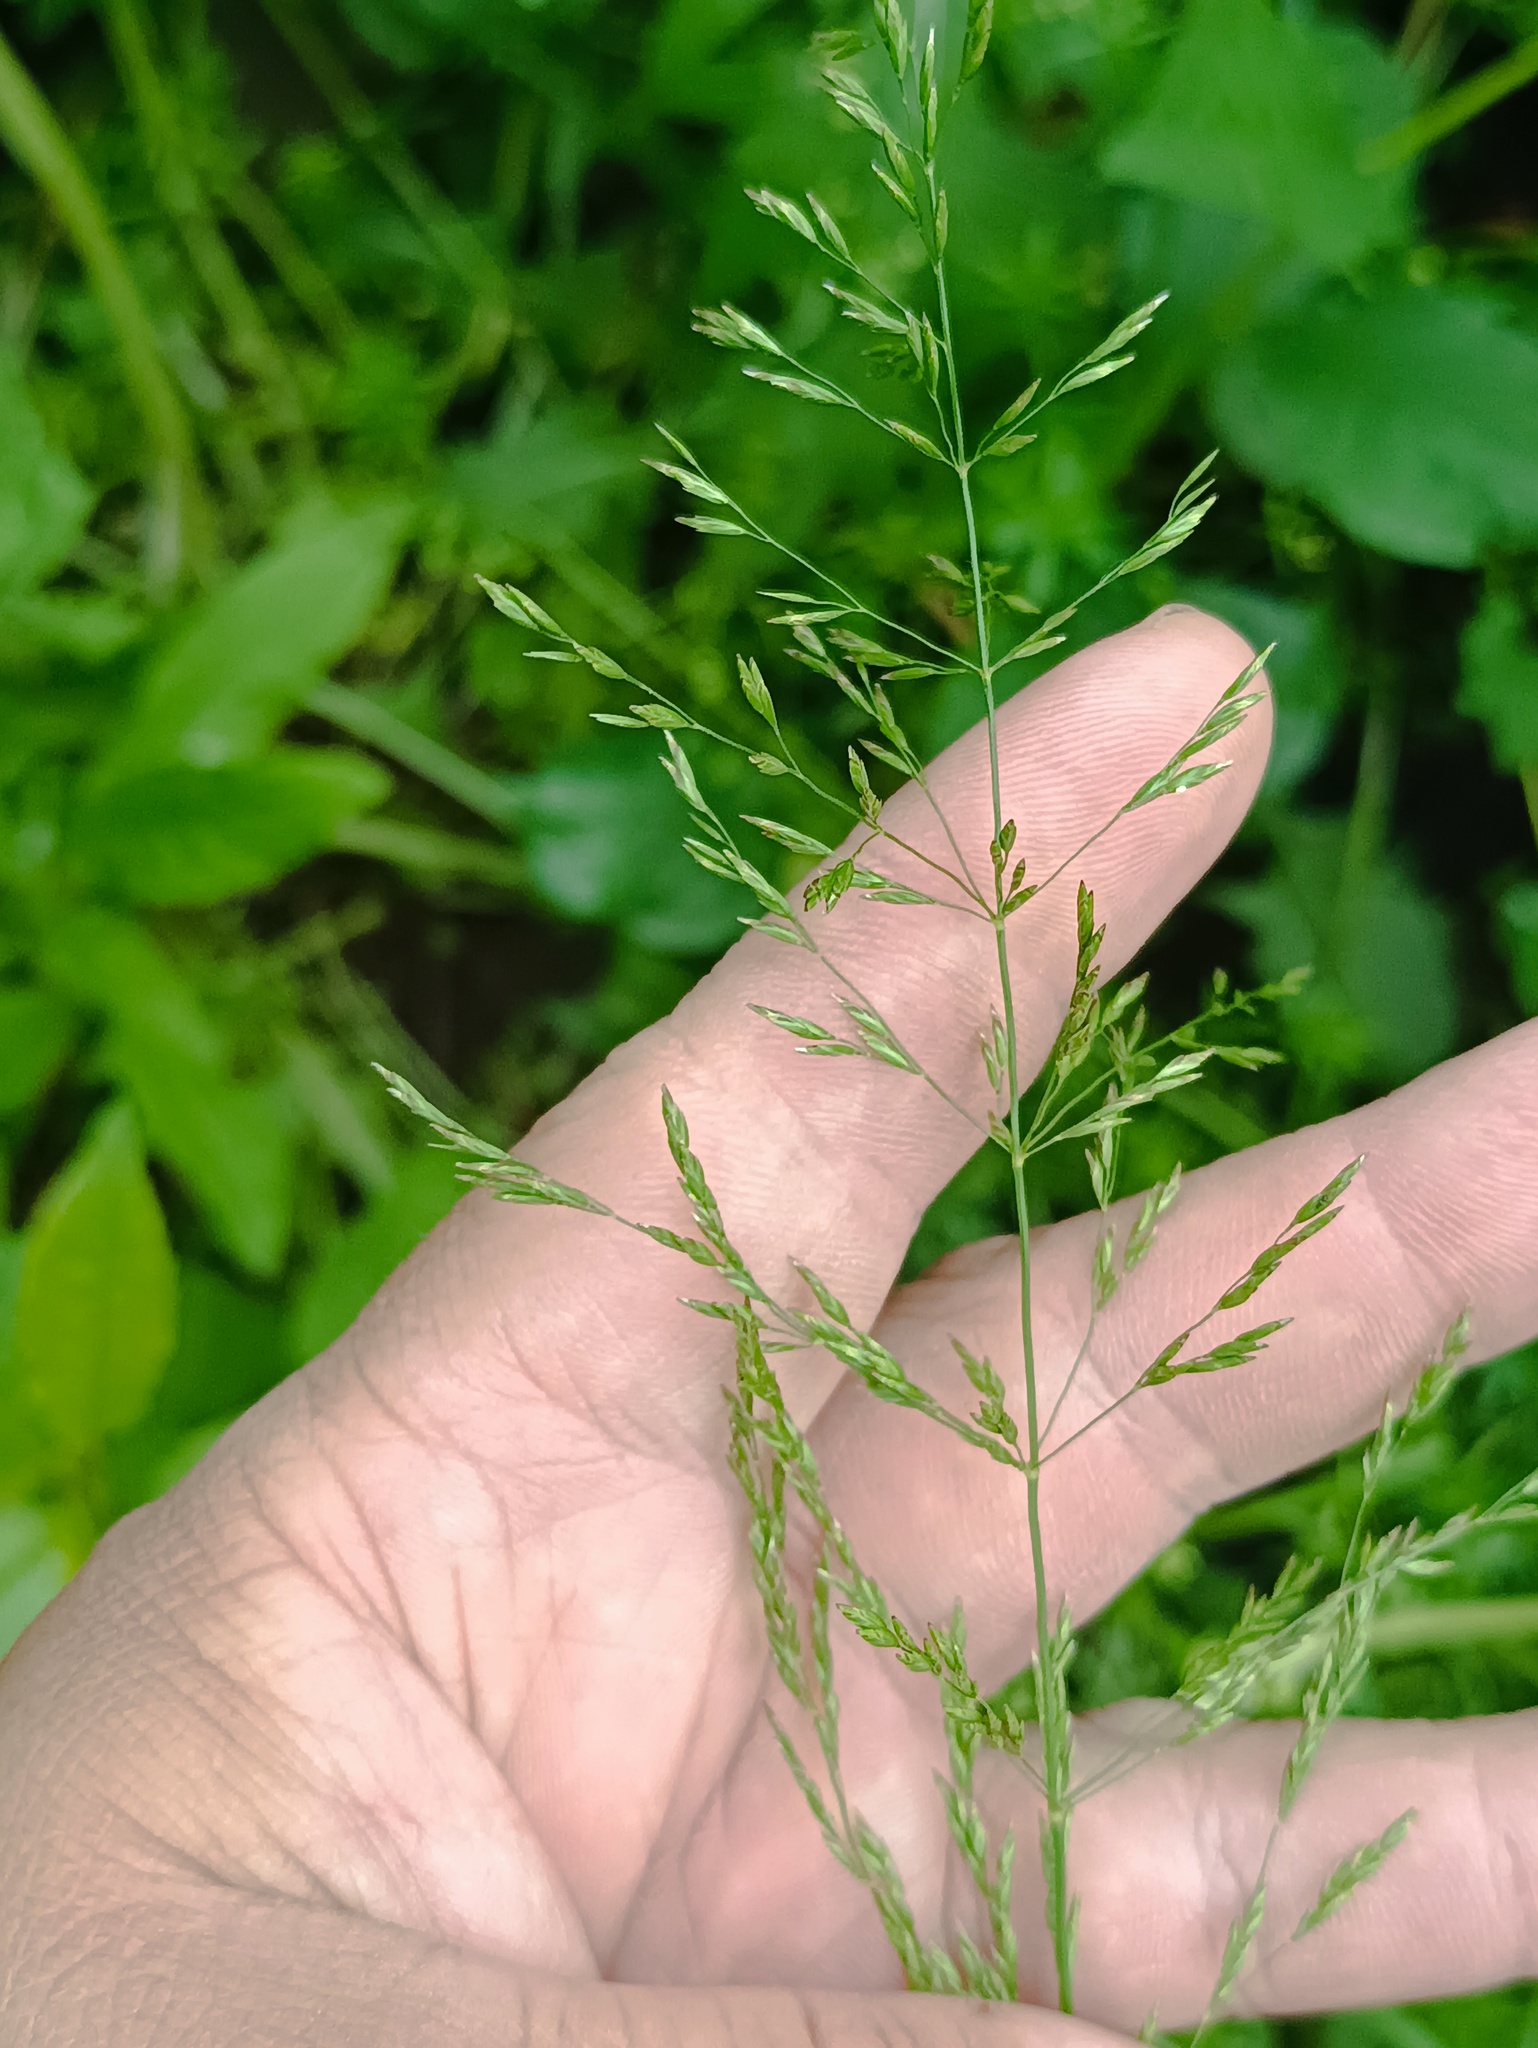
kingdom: Plantae
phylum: Tracheophyta
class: Liliopsida
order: Poales
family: Poaceae
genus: Poa
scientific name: Poa trivialis
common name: Rough bluegrass
